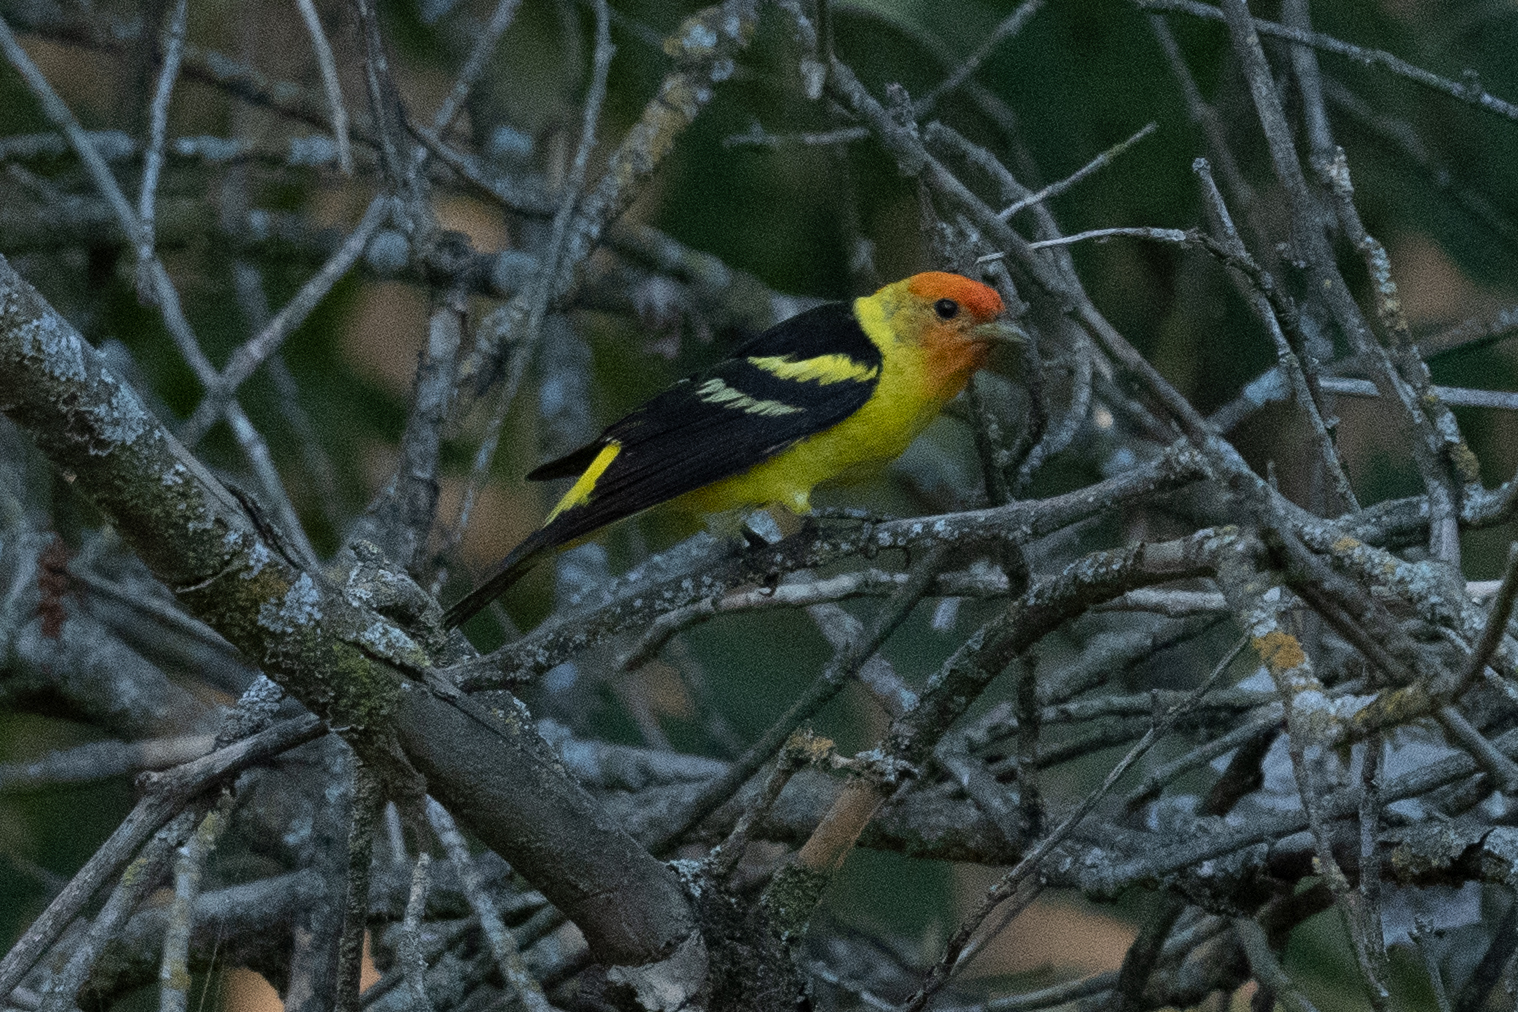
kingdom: Animalia
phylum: Chordata
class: Aves
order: Passeriformes
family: Cardinalidae
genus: Piranga
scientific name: Piranga ludoviciana
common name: Western tanager
